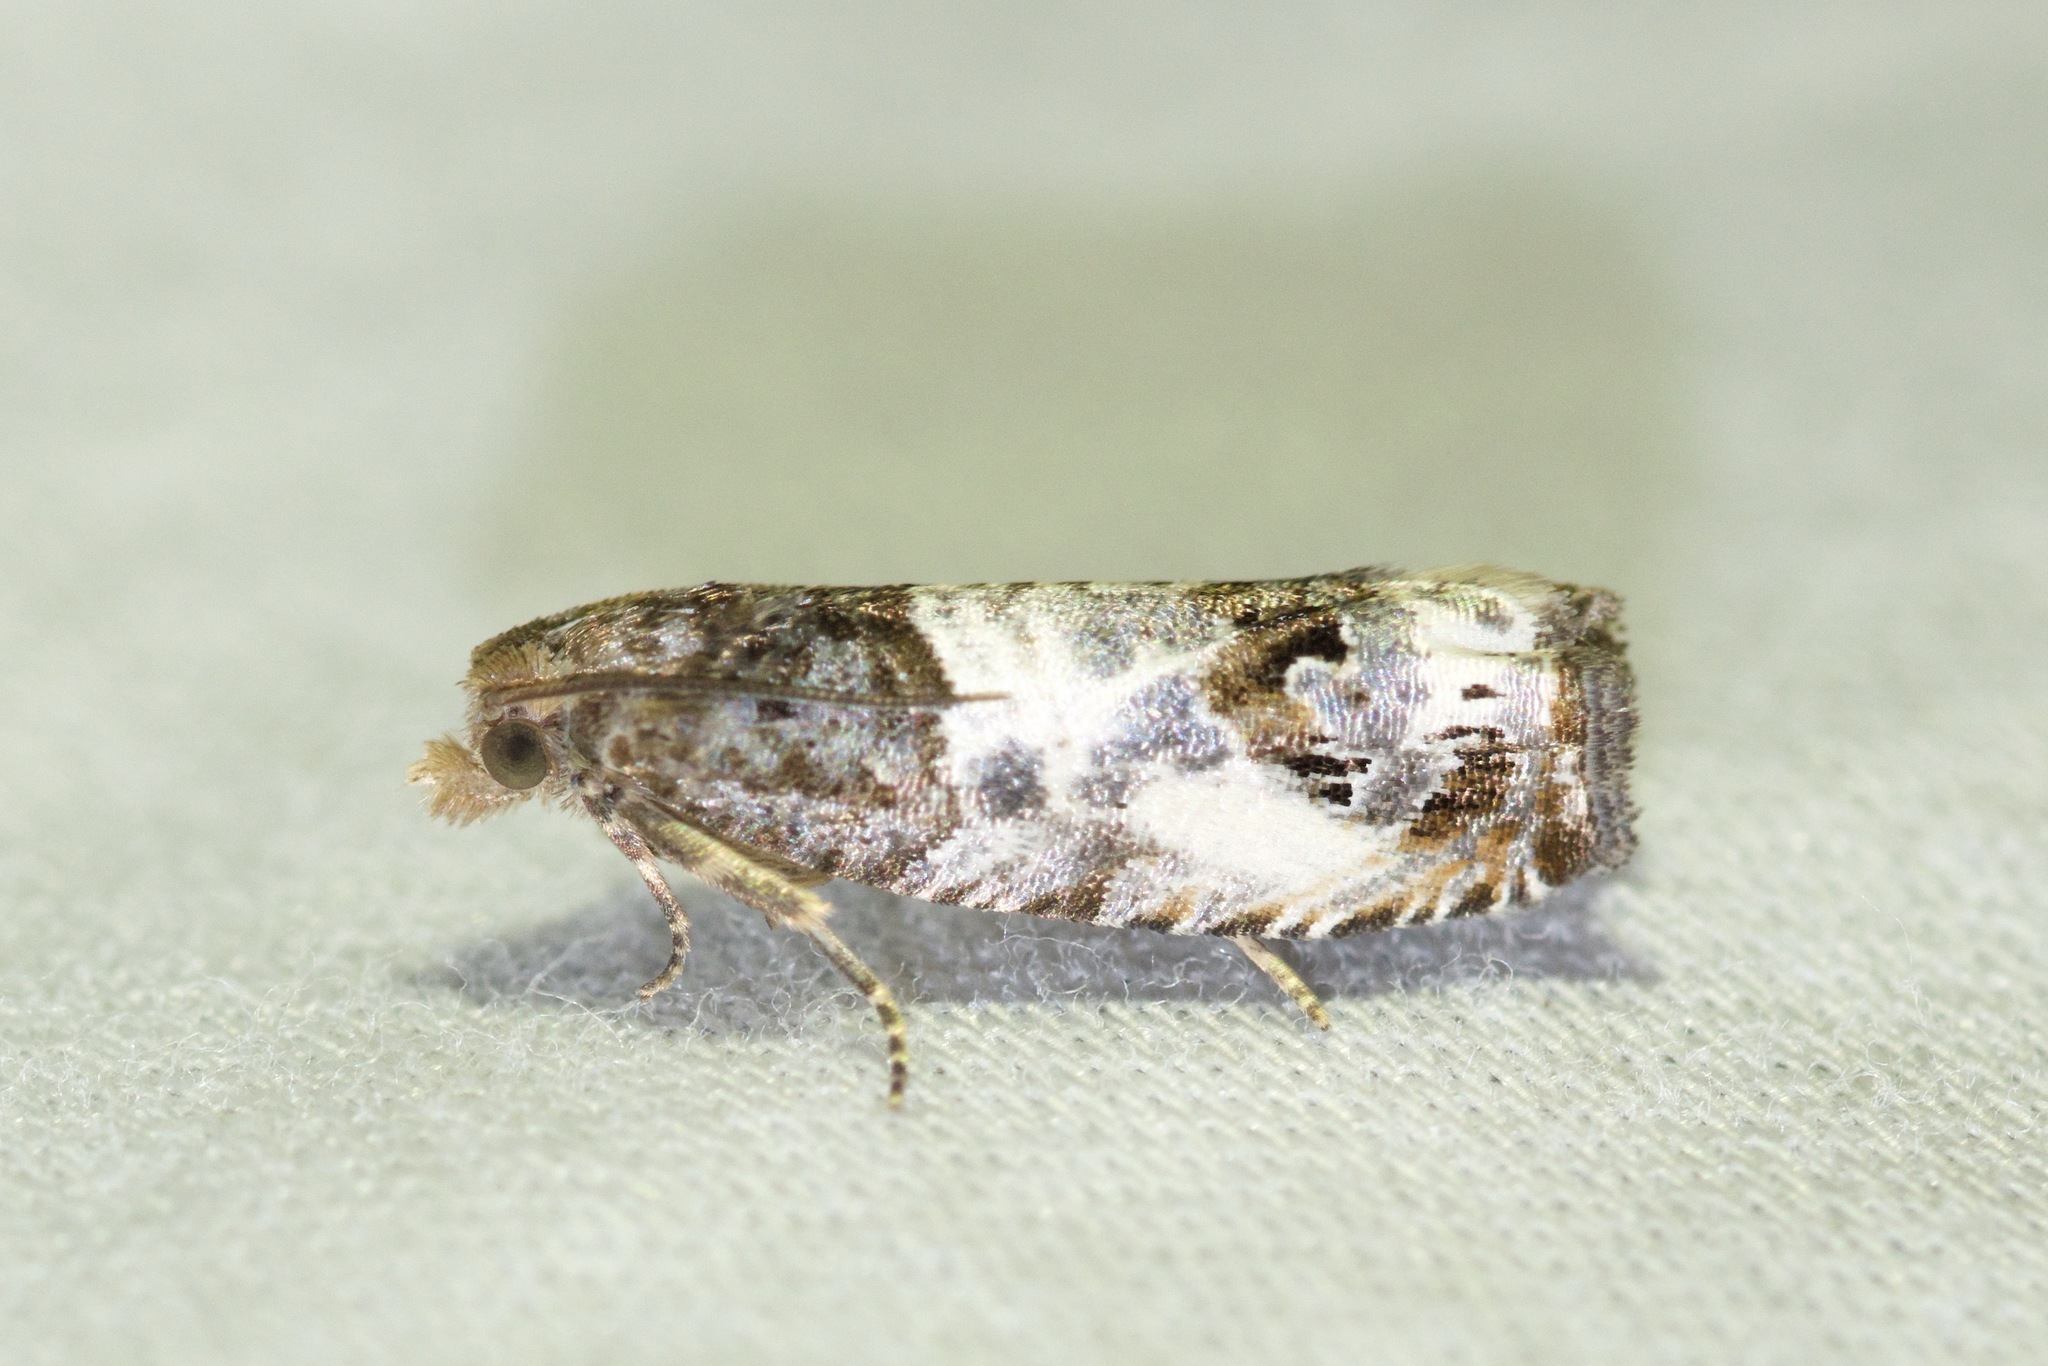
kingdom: Animalia
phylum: Arthropoda
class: Insecta
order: Lepidoptera
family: Tortricidae
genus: Notocelia
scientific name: Notocelia rosaecolana
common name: Common rose bell
